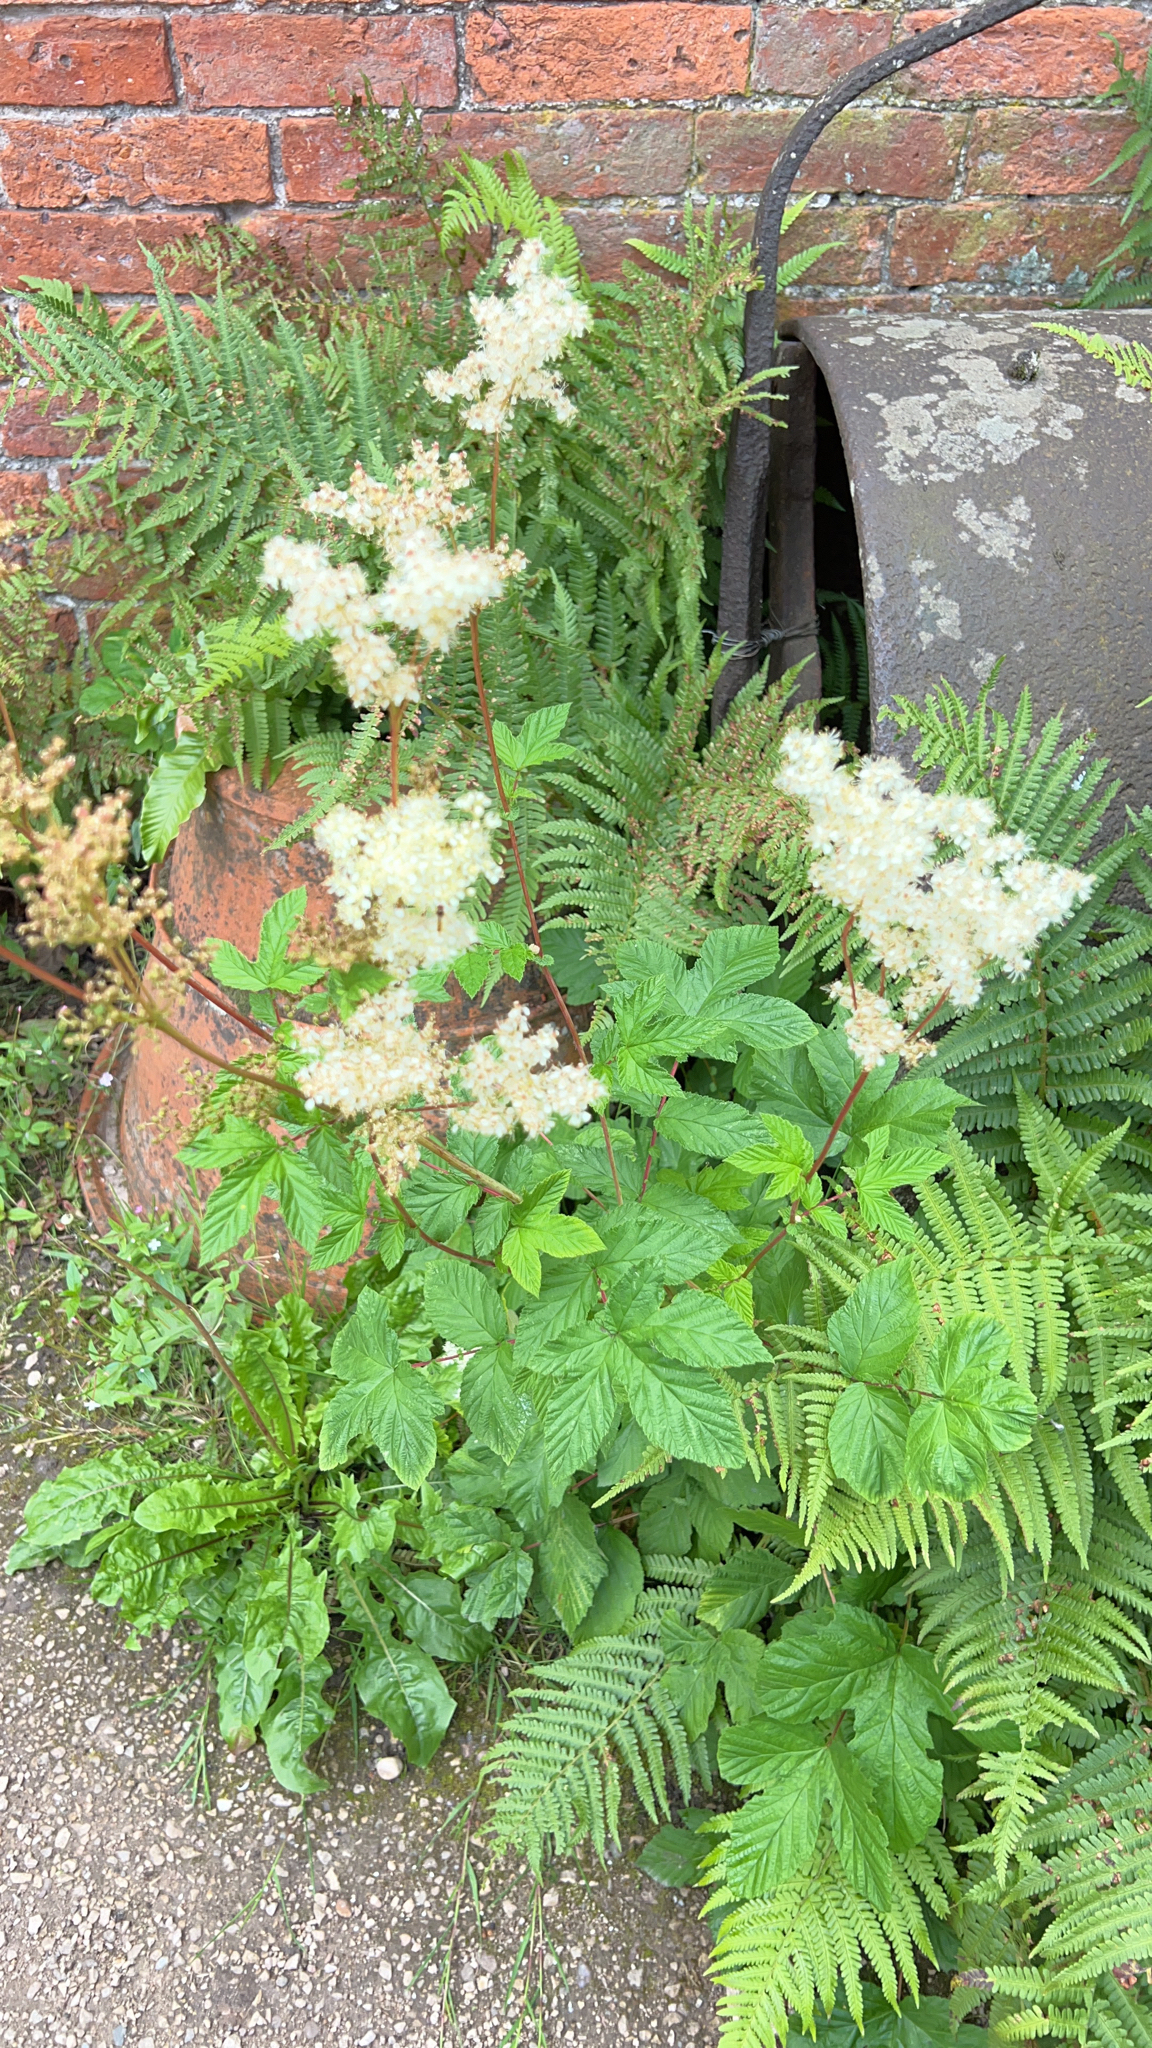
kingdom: Plantae
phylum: Tracheophyta
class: Magnoliopsida
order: Rosales
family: Rosaceae
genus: Filipendula
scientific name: Filipendula ulmaria
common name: Meadowsweet
